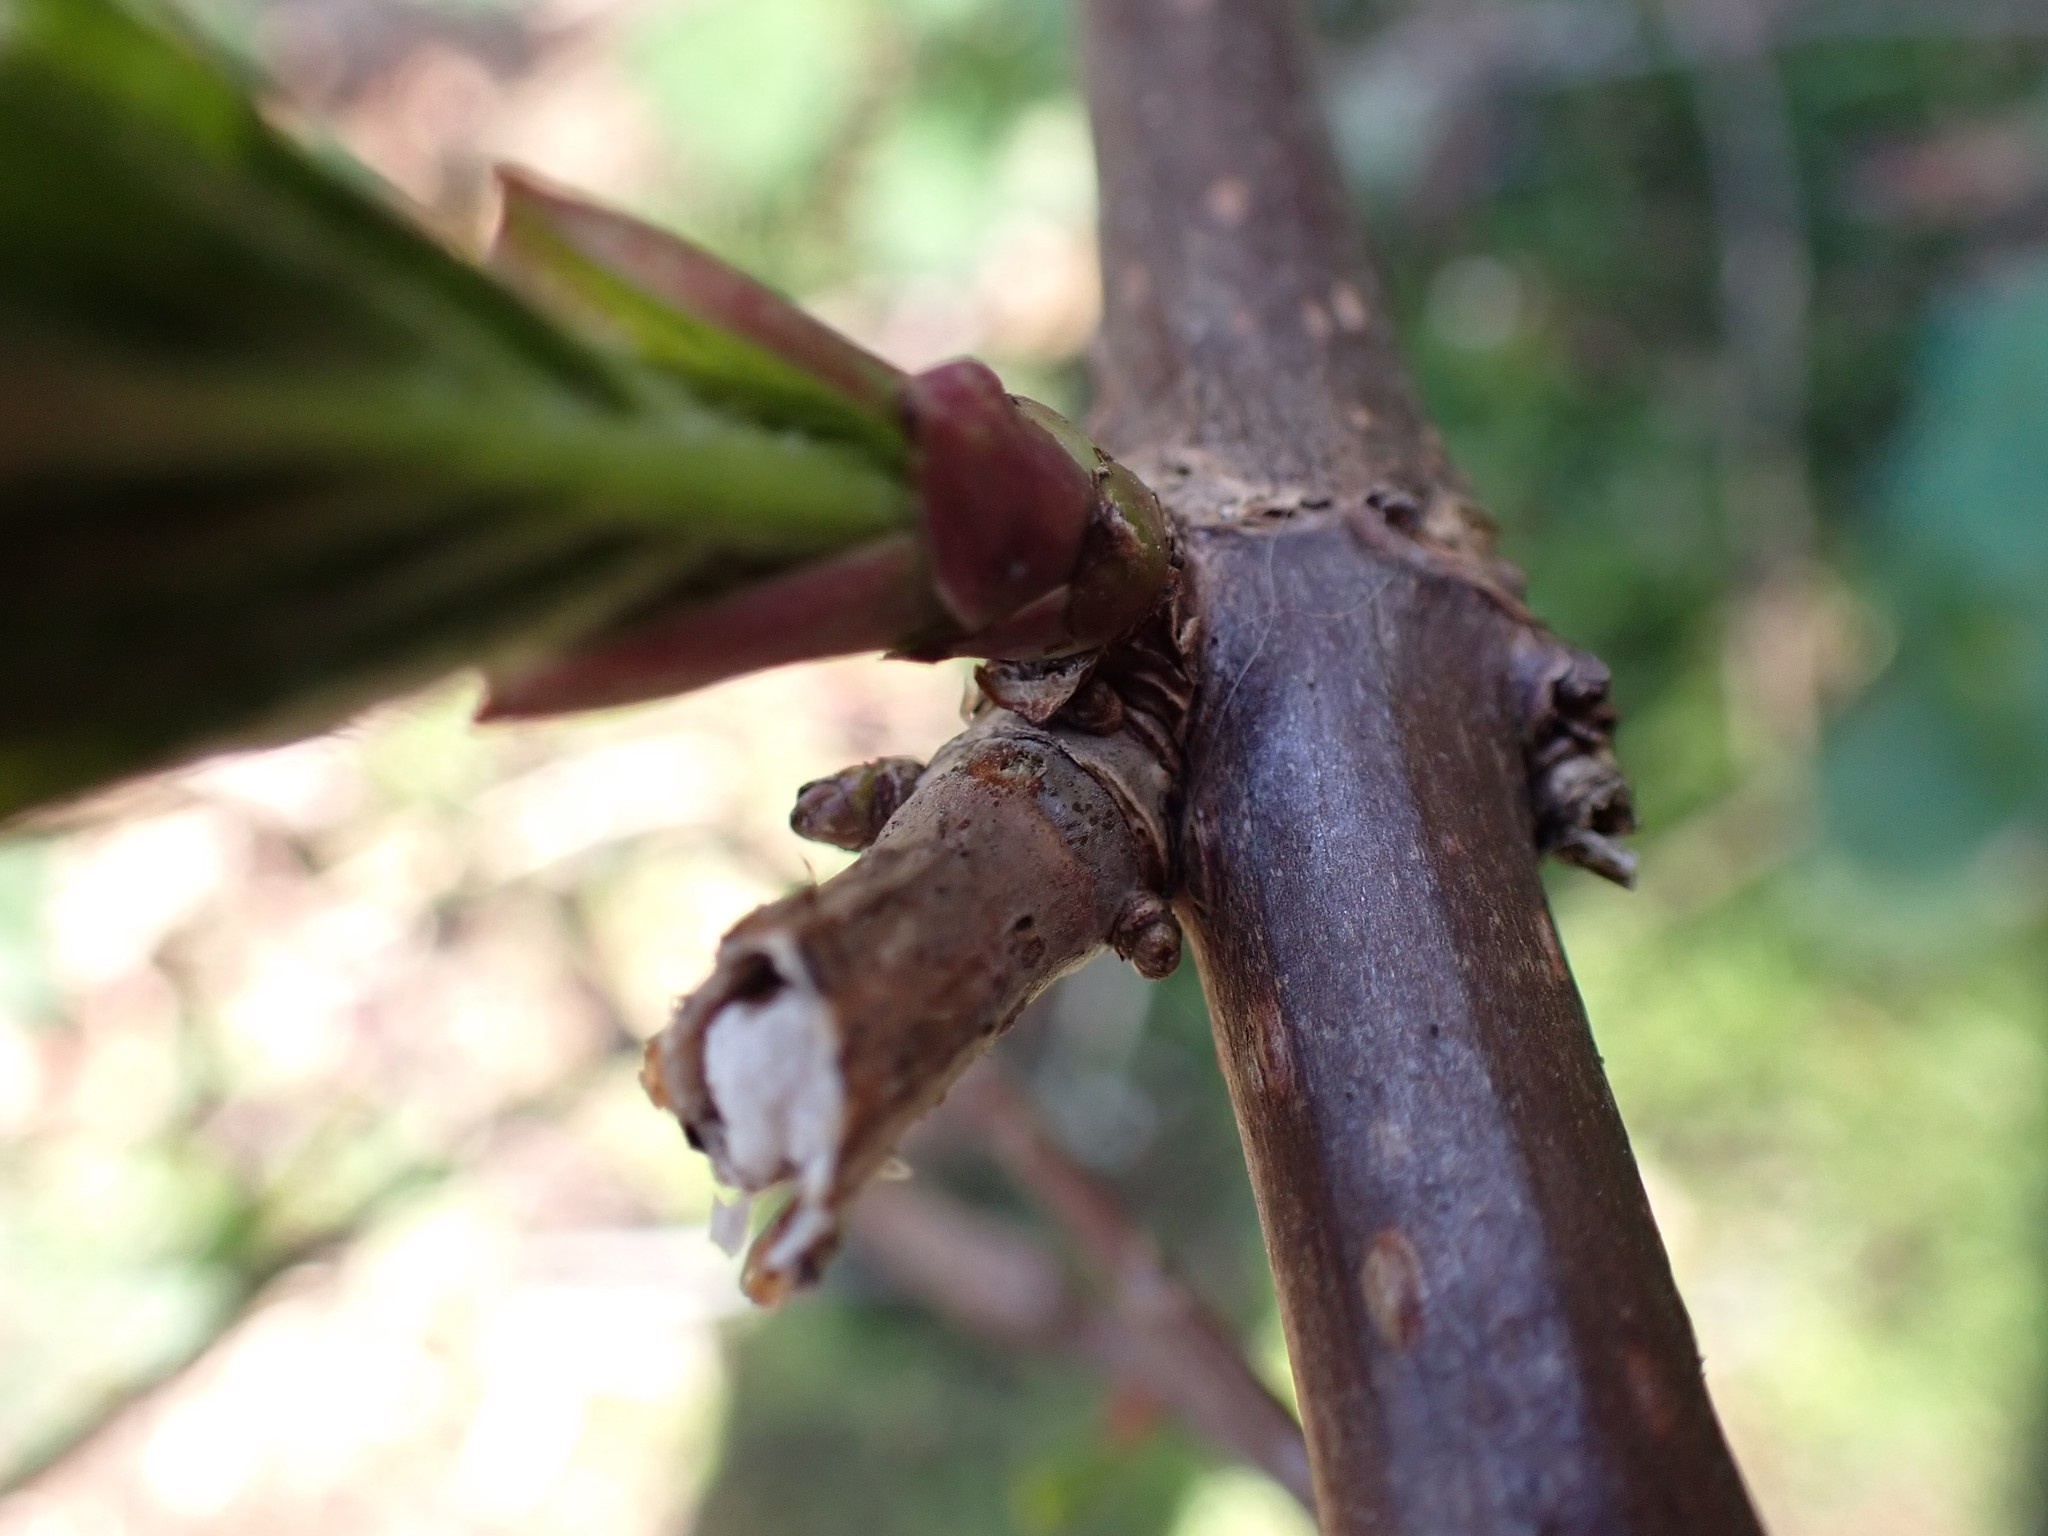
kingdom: Plantae
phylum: Tracheophyta
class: Magnoliopsida
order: Dipsacales
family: Viburnaceae
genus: Sambucus
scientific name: Sambucus racemosa
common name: Red-berried elder
